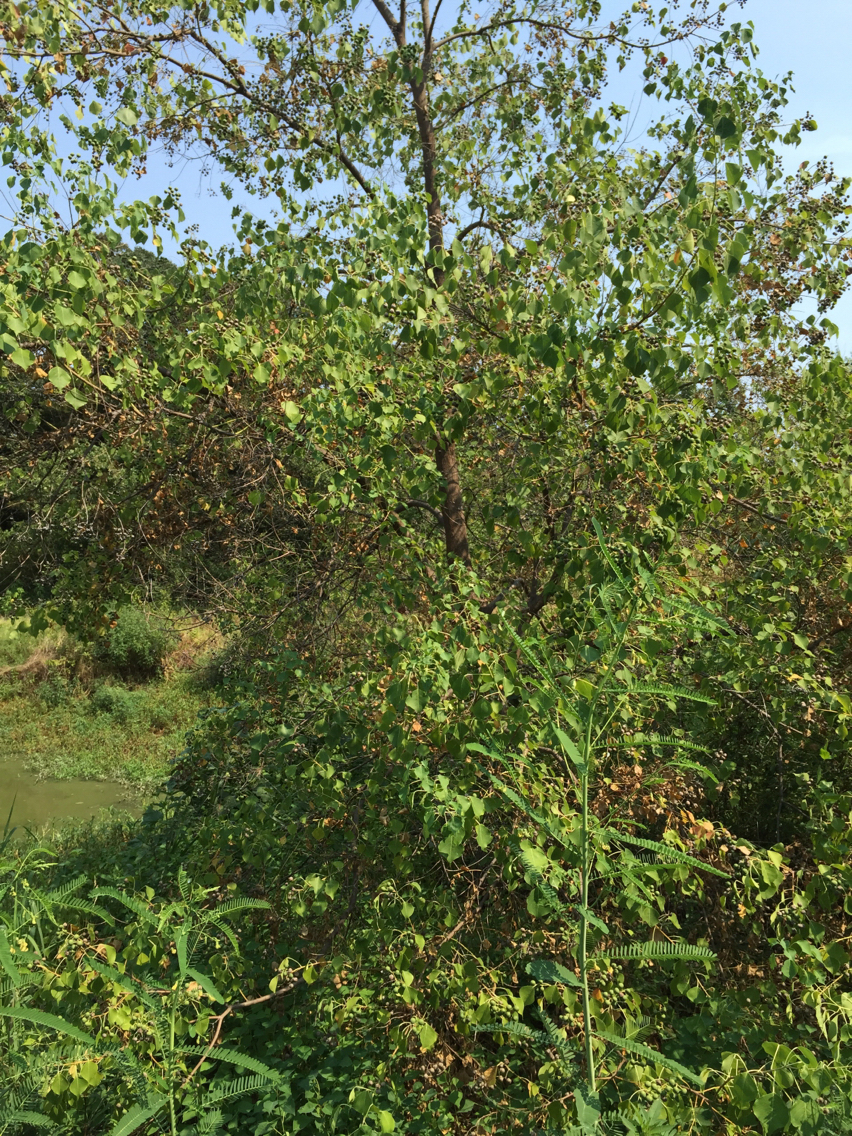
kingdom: Plantae
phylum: Tracheophyta
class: Magnoliopsida
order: Malpighiales
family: Euphorbiaceae
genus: Triadica
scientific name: Triadica sebifera
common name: Chinese tallow
